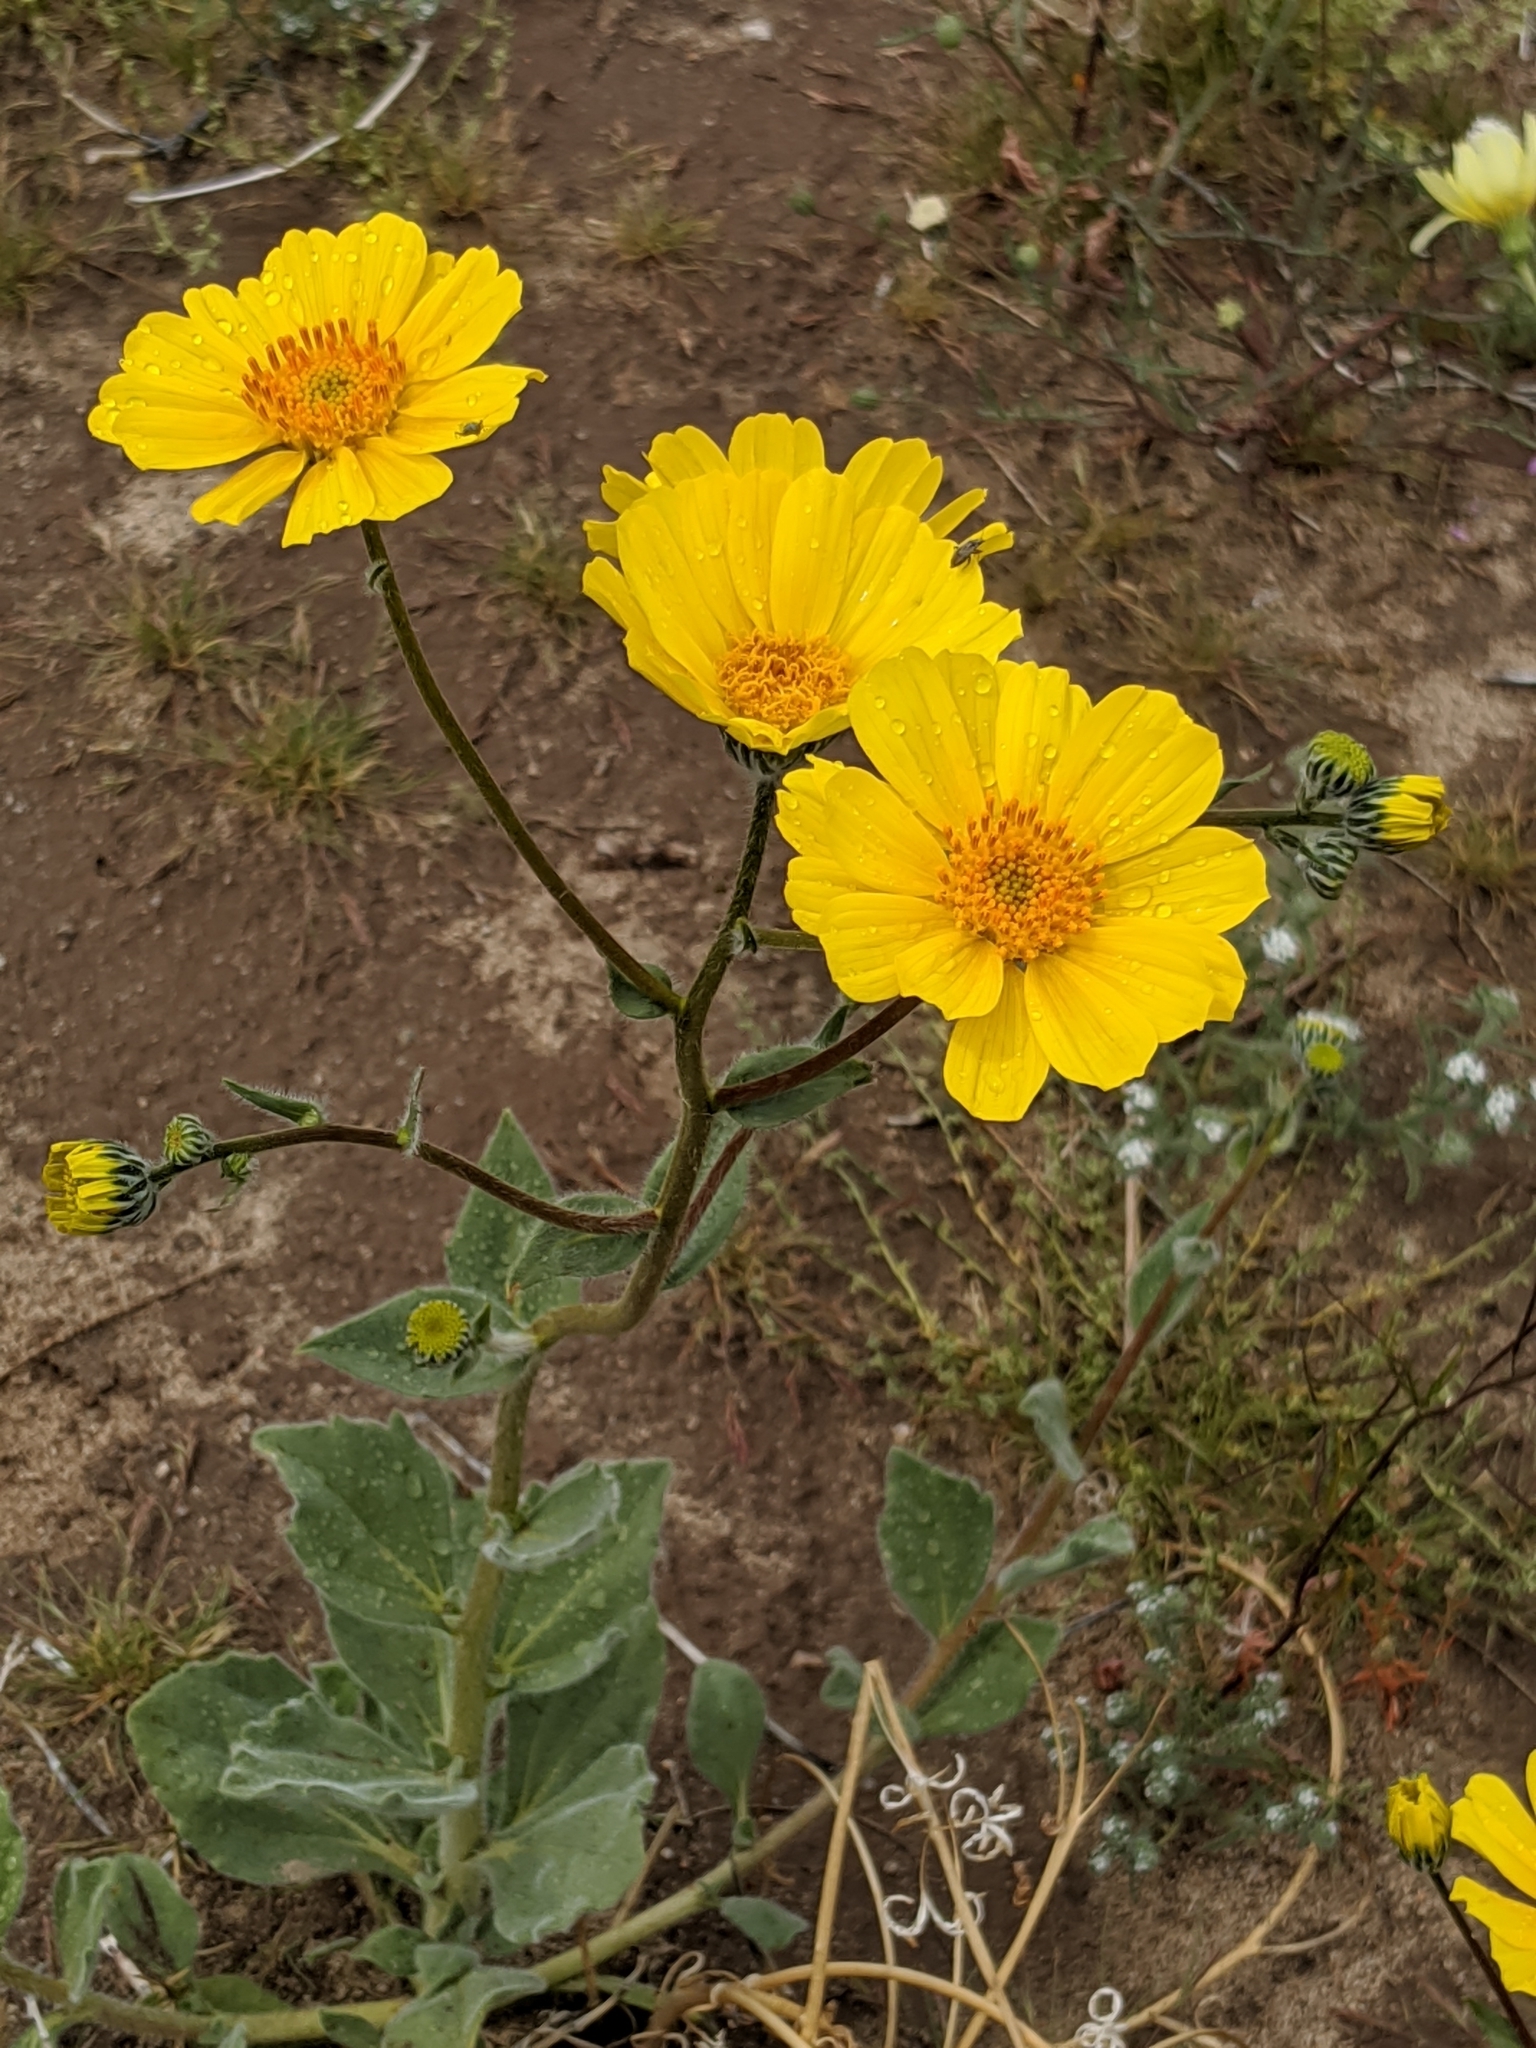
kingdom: Plantae
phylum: Tracheophyta
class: Magnoliopsida
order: Asterales
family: Asteraceae
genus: Geraea
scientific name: Geraea canescens
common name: Desert-gold
